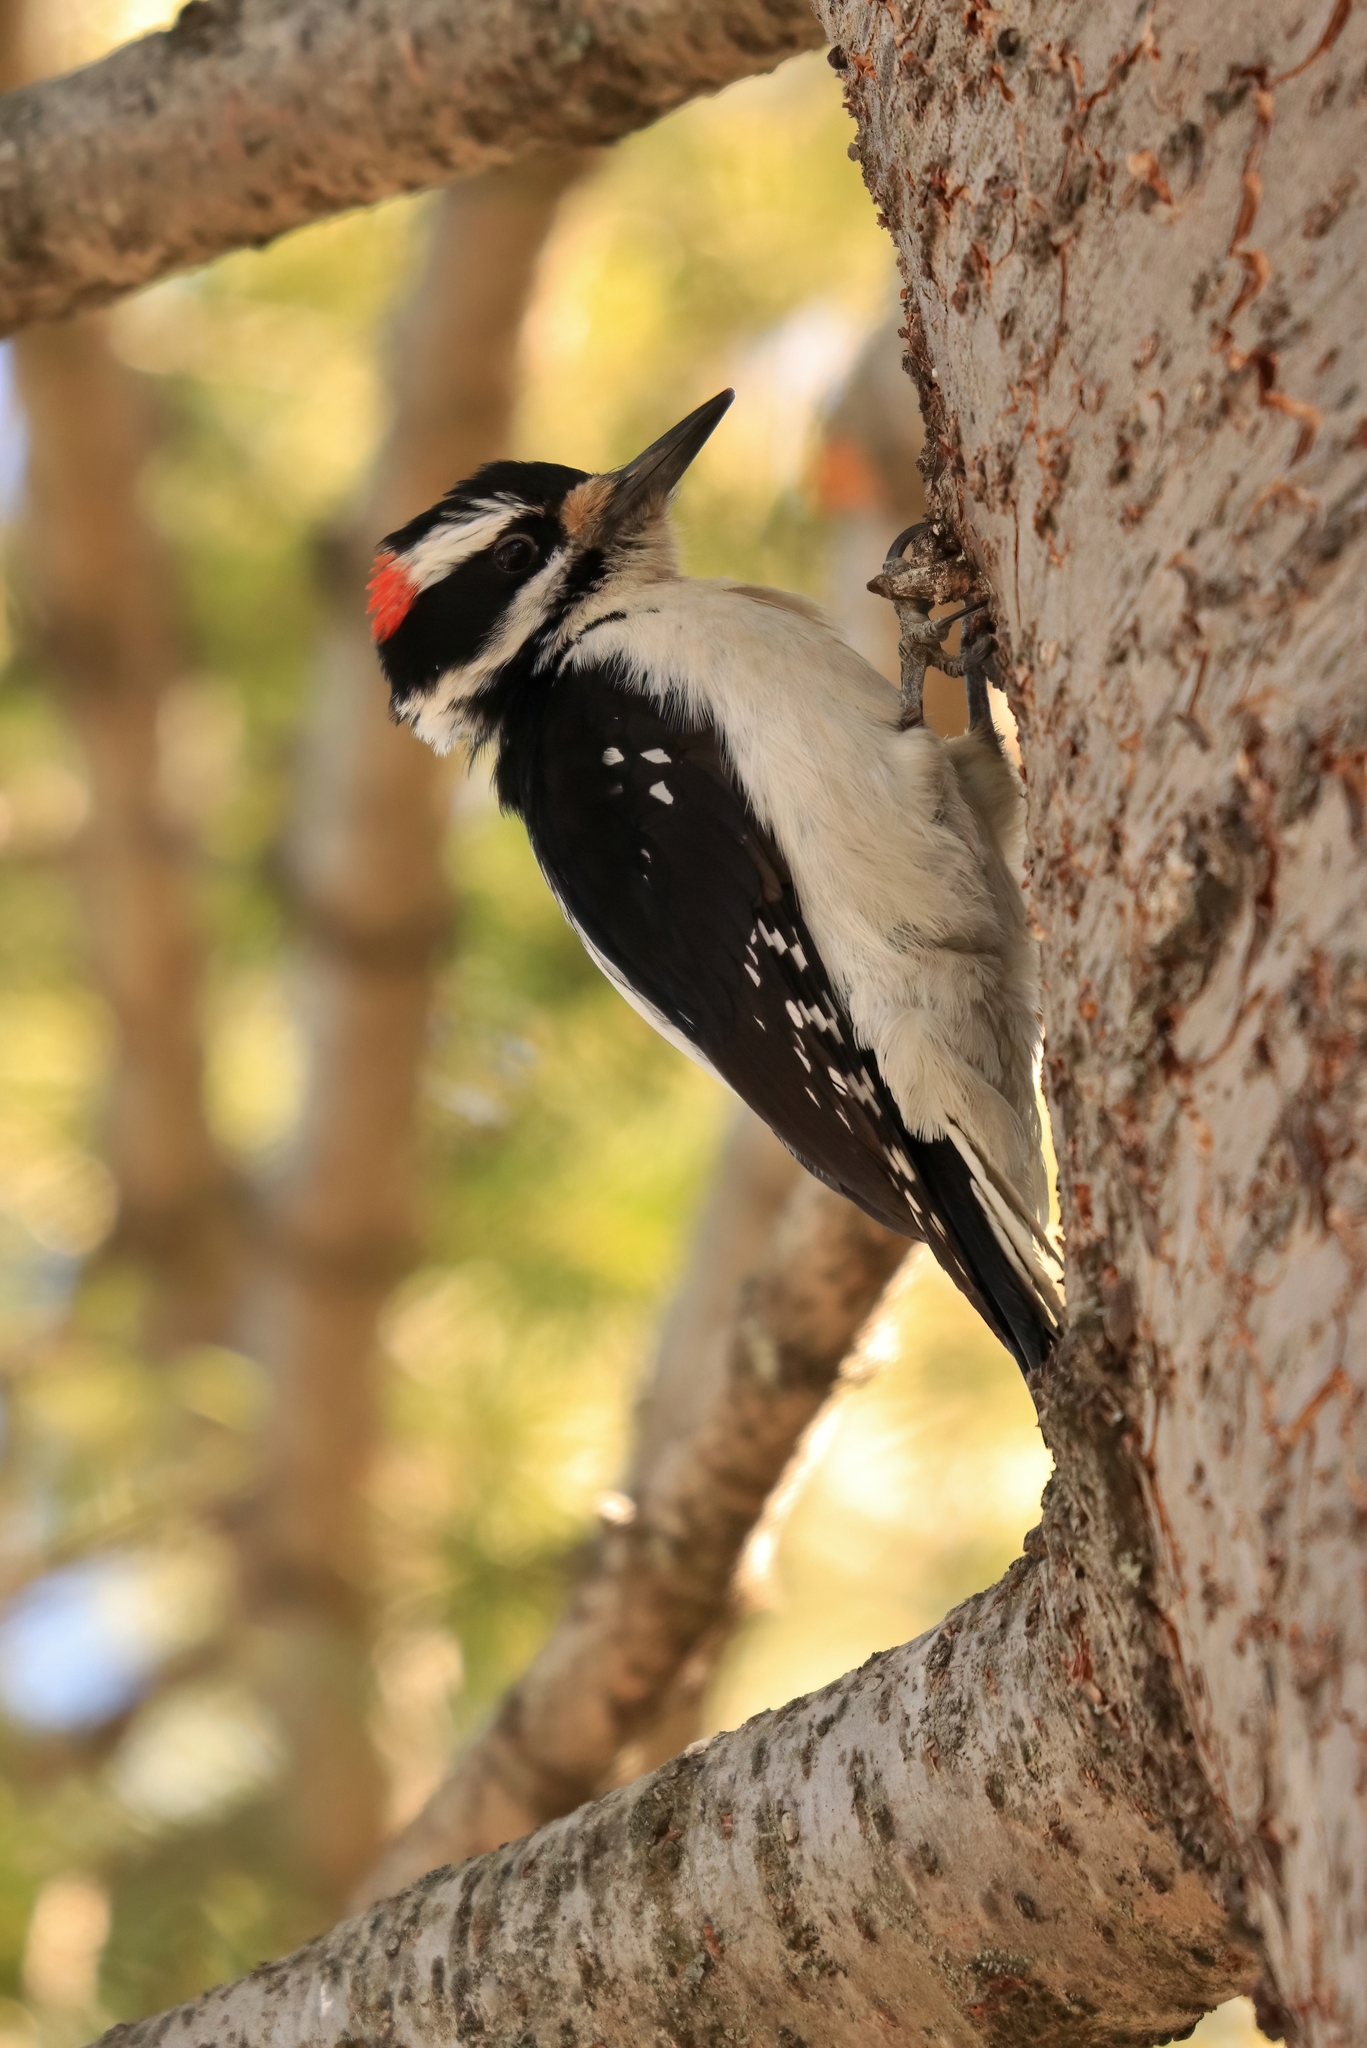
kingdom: Animalia
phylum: Chordata
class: Aves
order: Piciformes
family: Picidae
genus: Leuconotopicus
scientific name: Leuconotopicus villosus
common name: Hairy woodpecker
